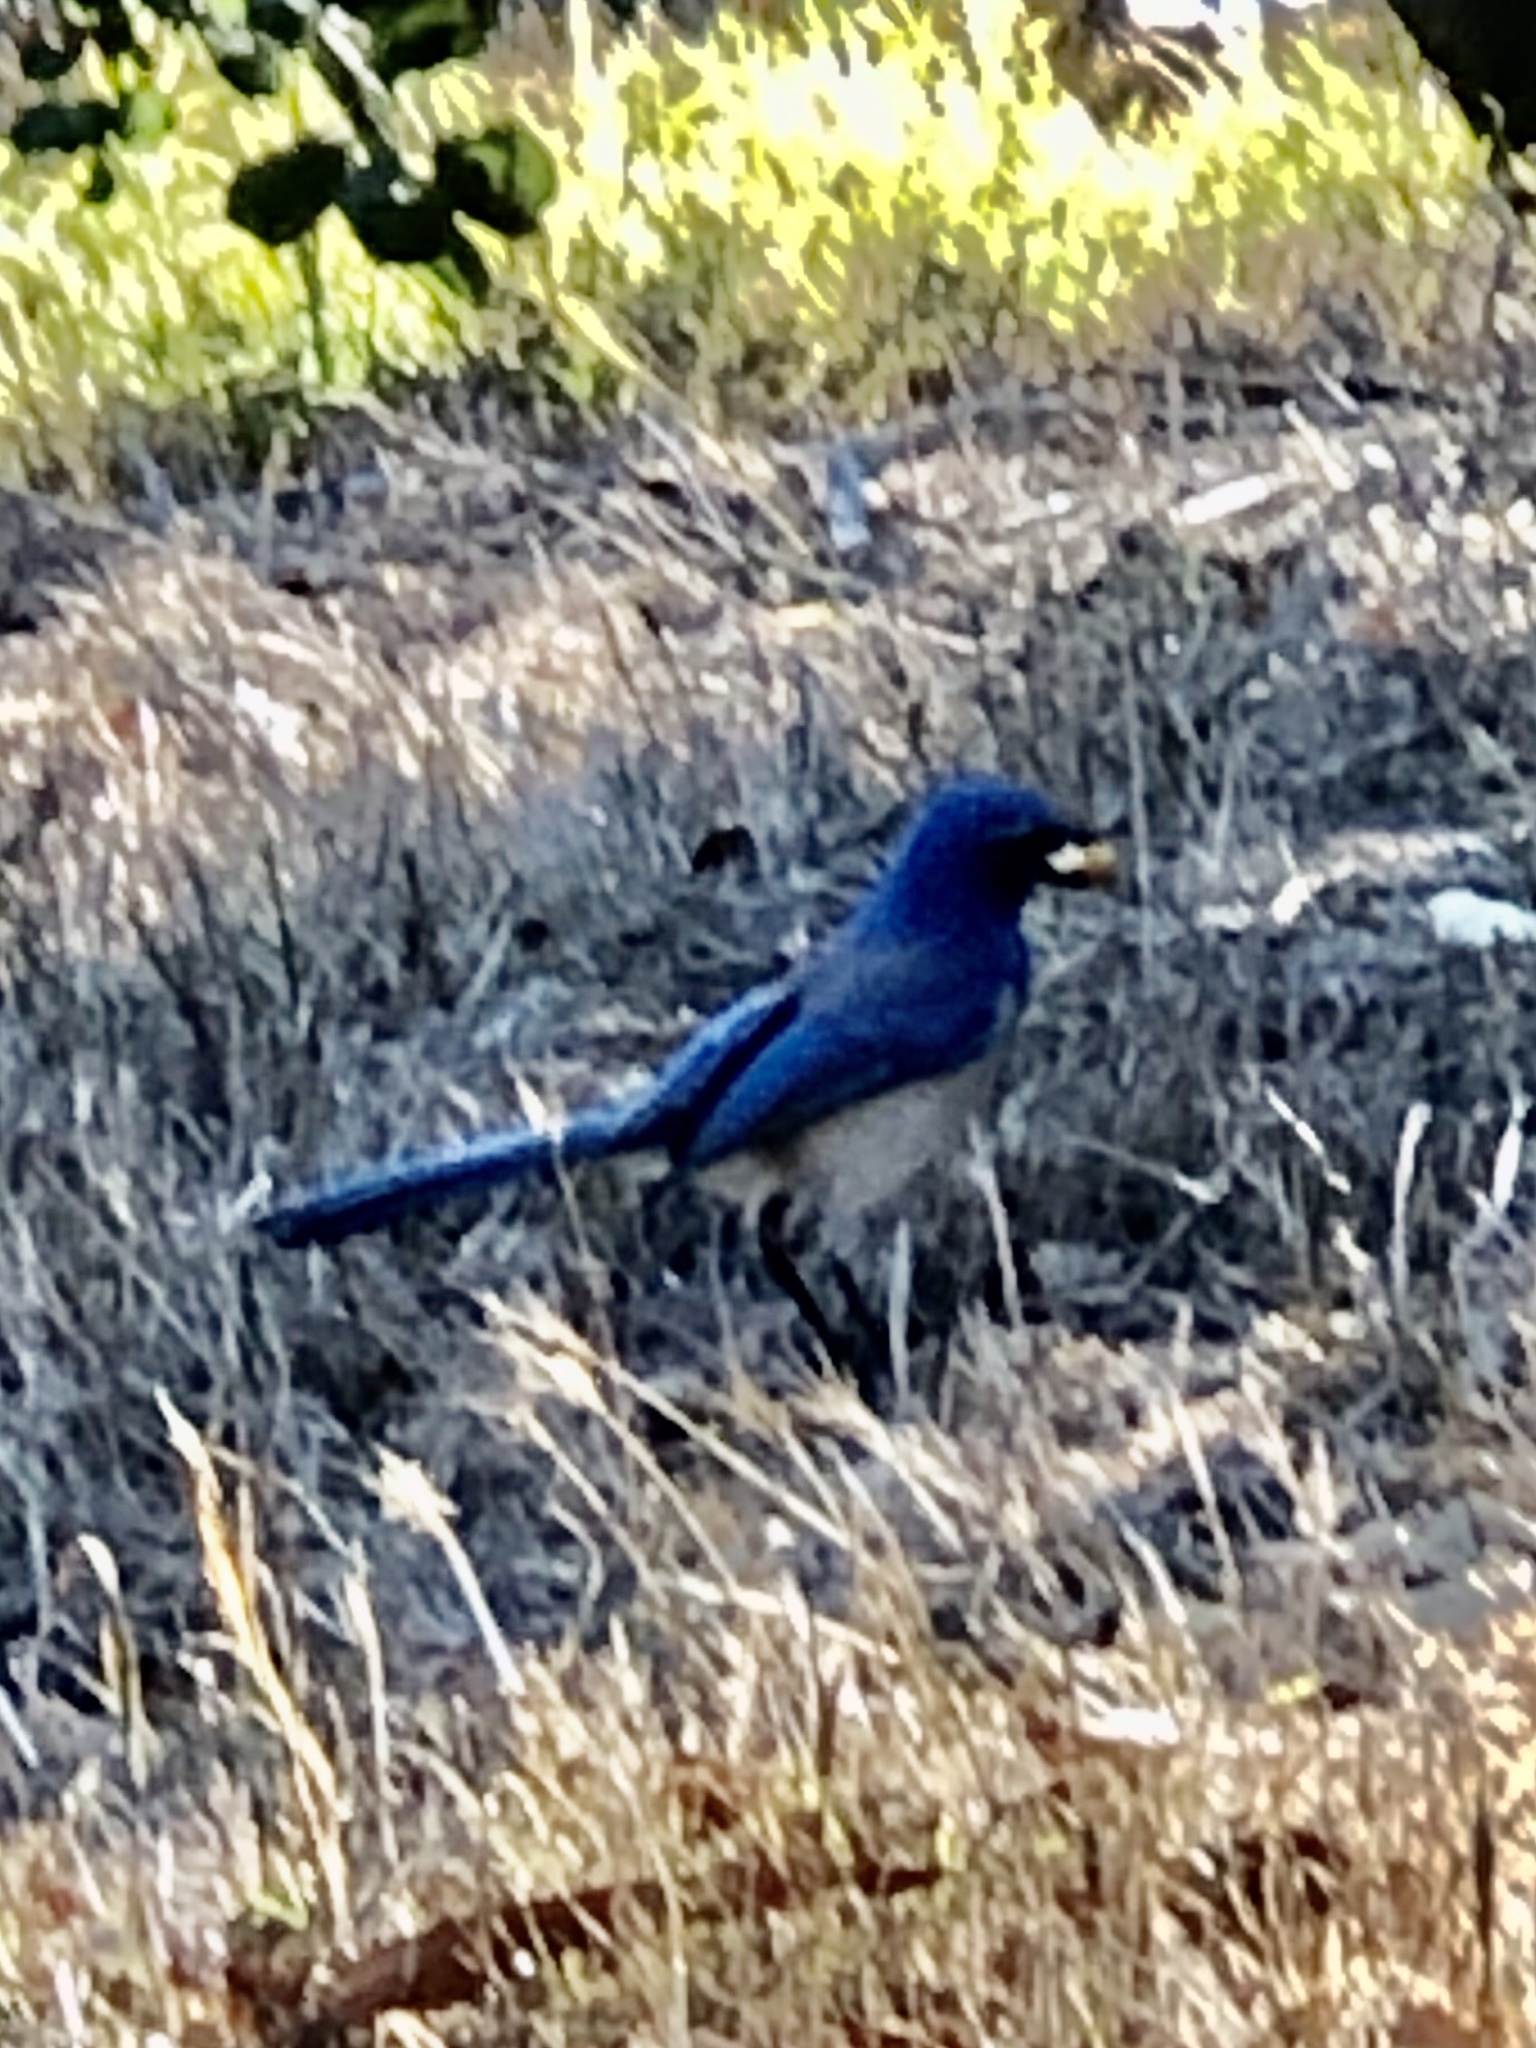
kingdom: Animalia
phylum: Chordata
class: Aves
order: Passeriformes
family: Corvidae
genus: Aphelocoma
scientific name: Aphelocoma californica
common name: California scrub-jay
